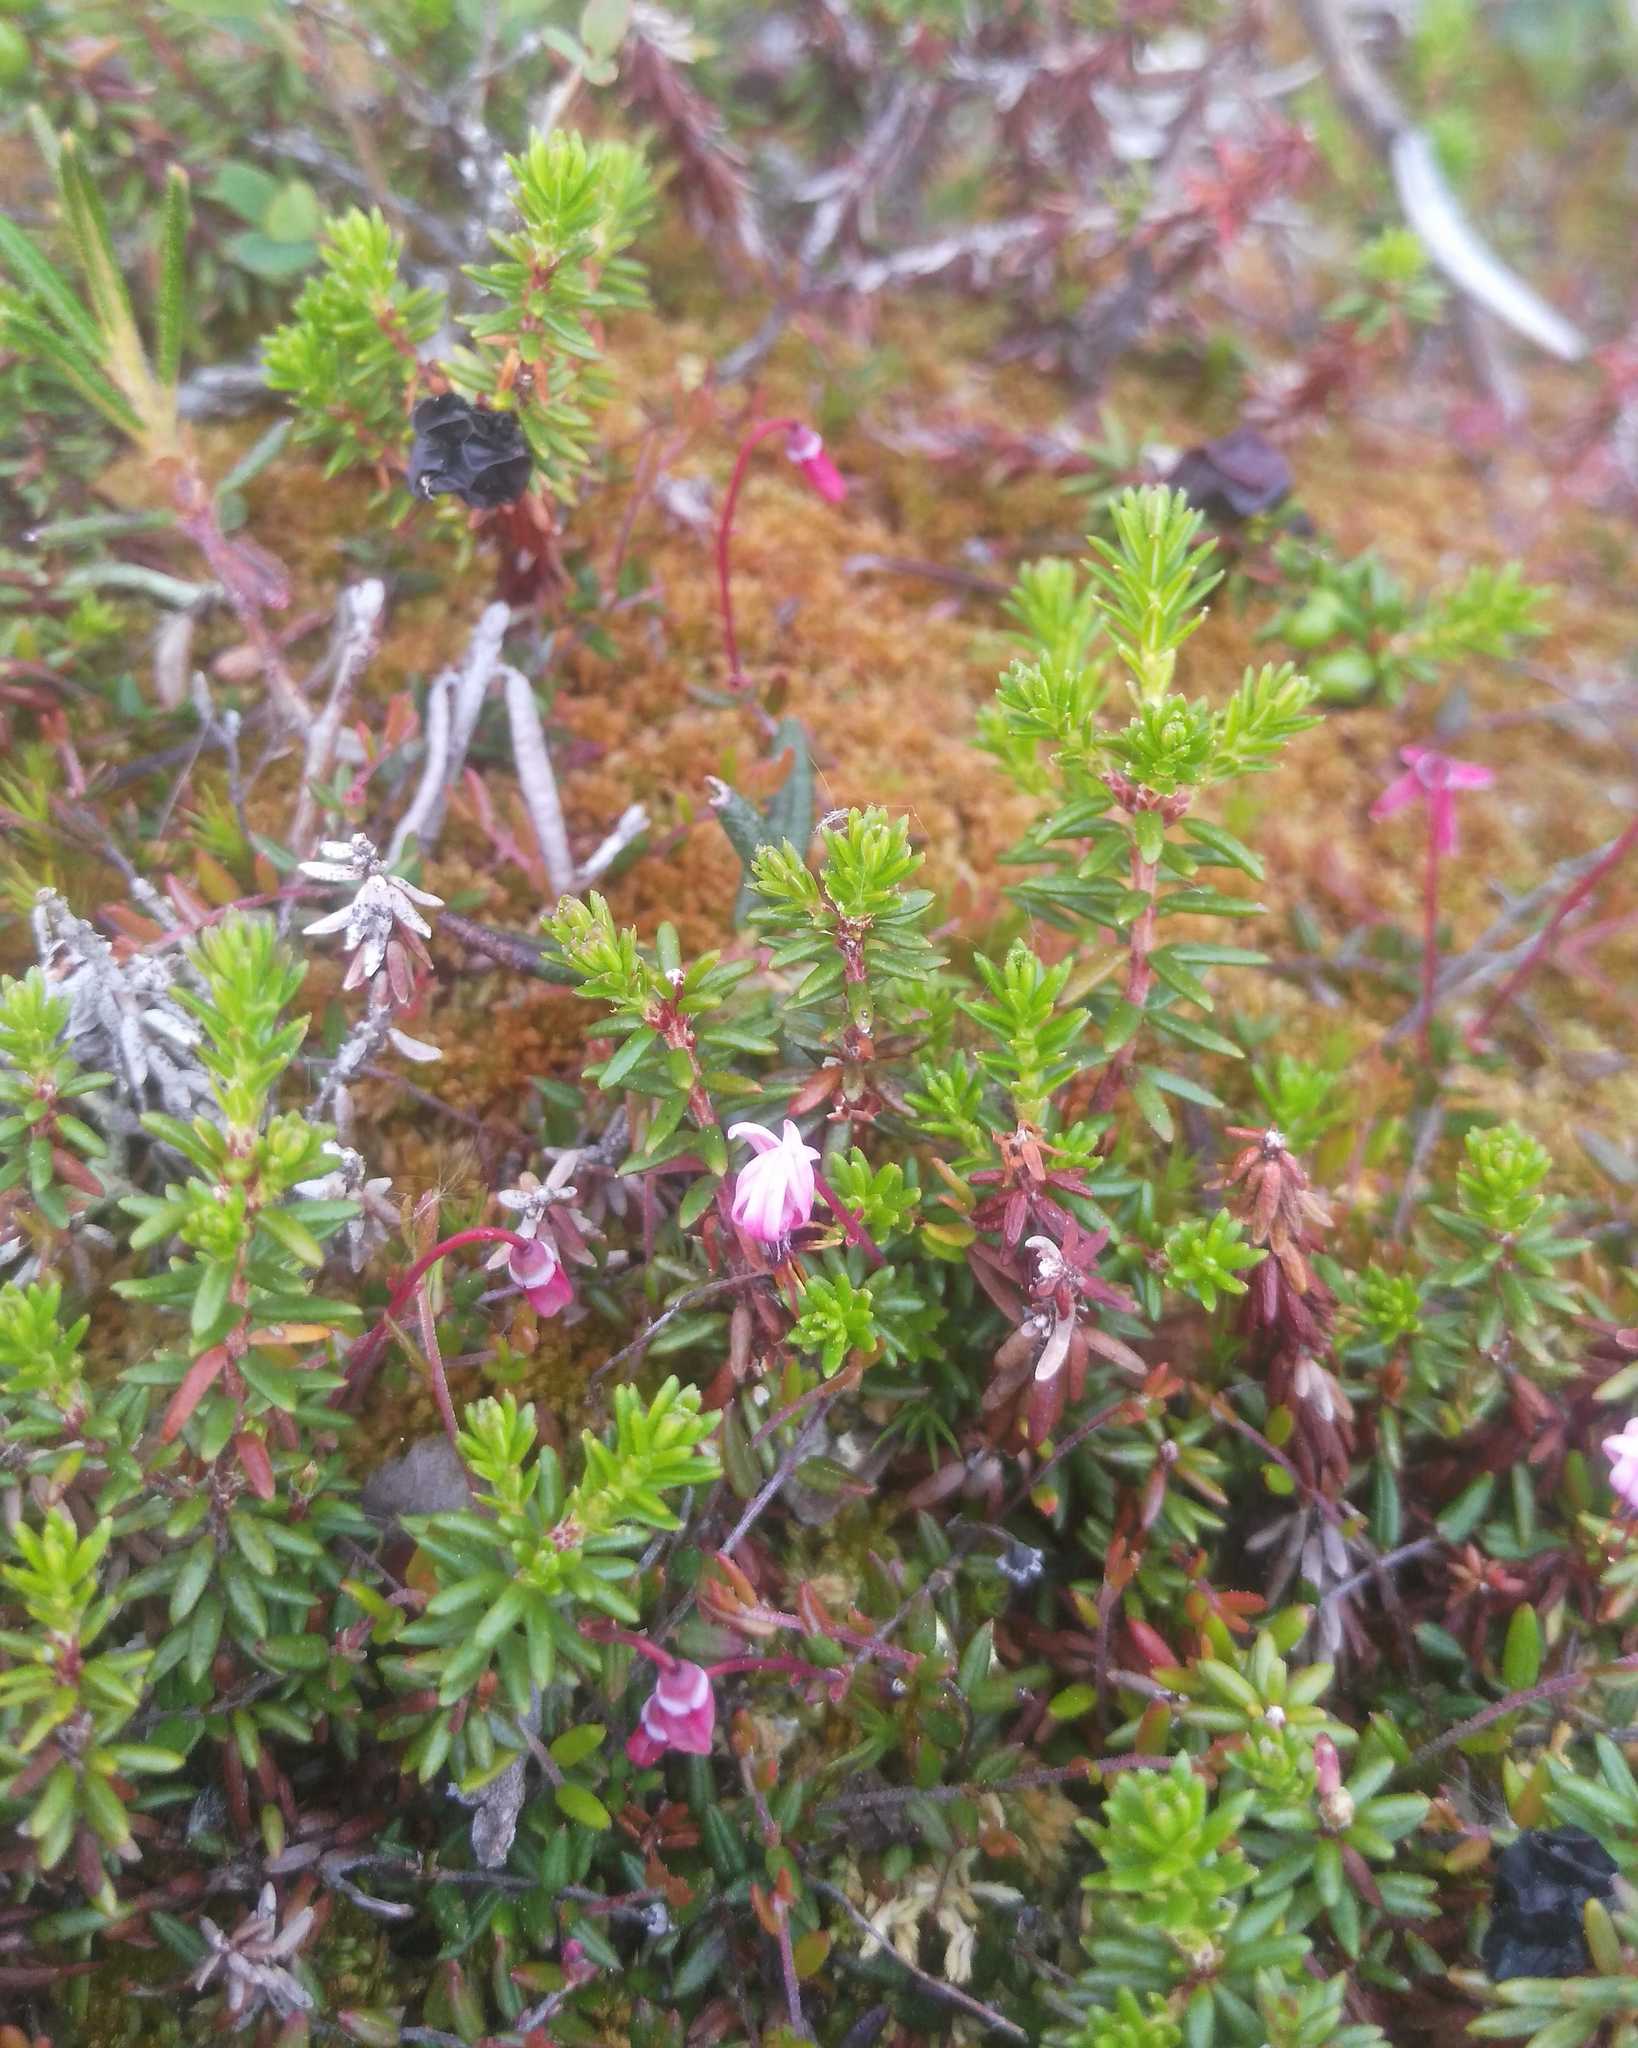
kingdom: Plantae
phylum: Tracheophyta
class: Magnoliopsida
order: Ericales
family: Ericaceae
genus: Empetrum
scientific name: Empetrum nigrum
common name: Black crowberry
